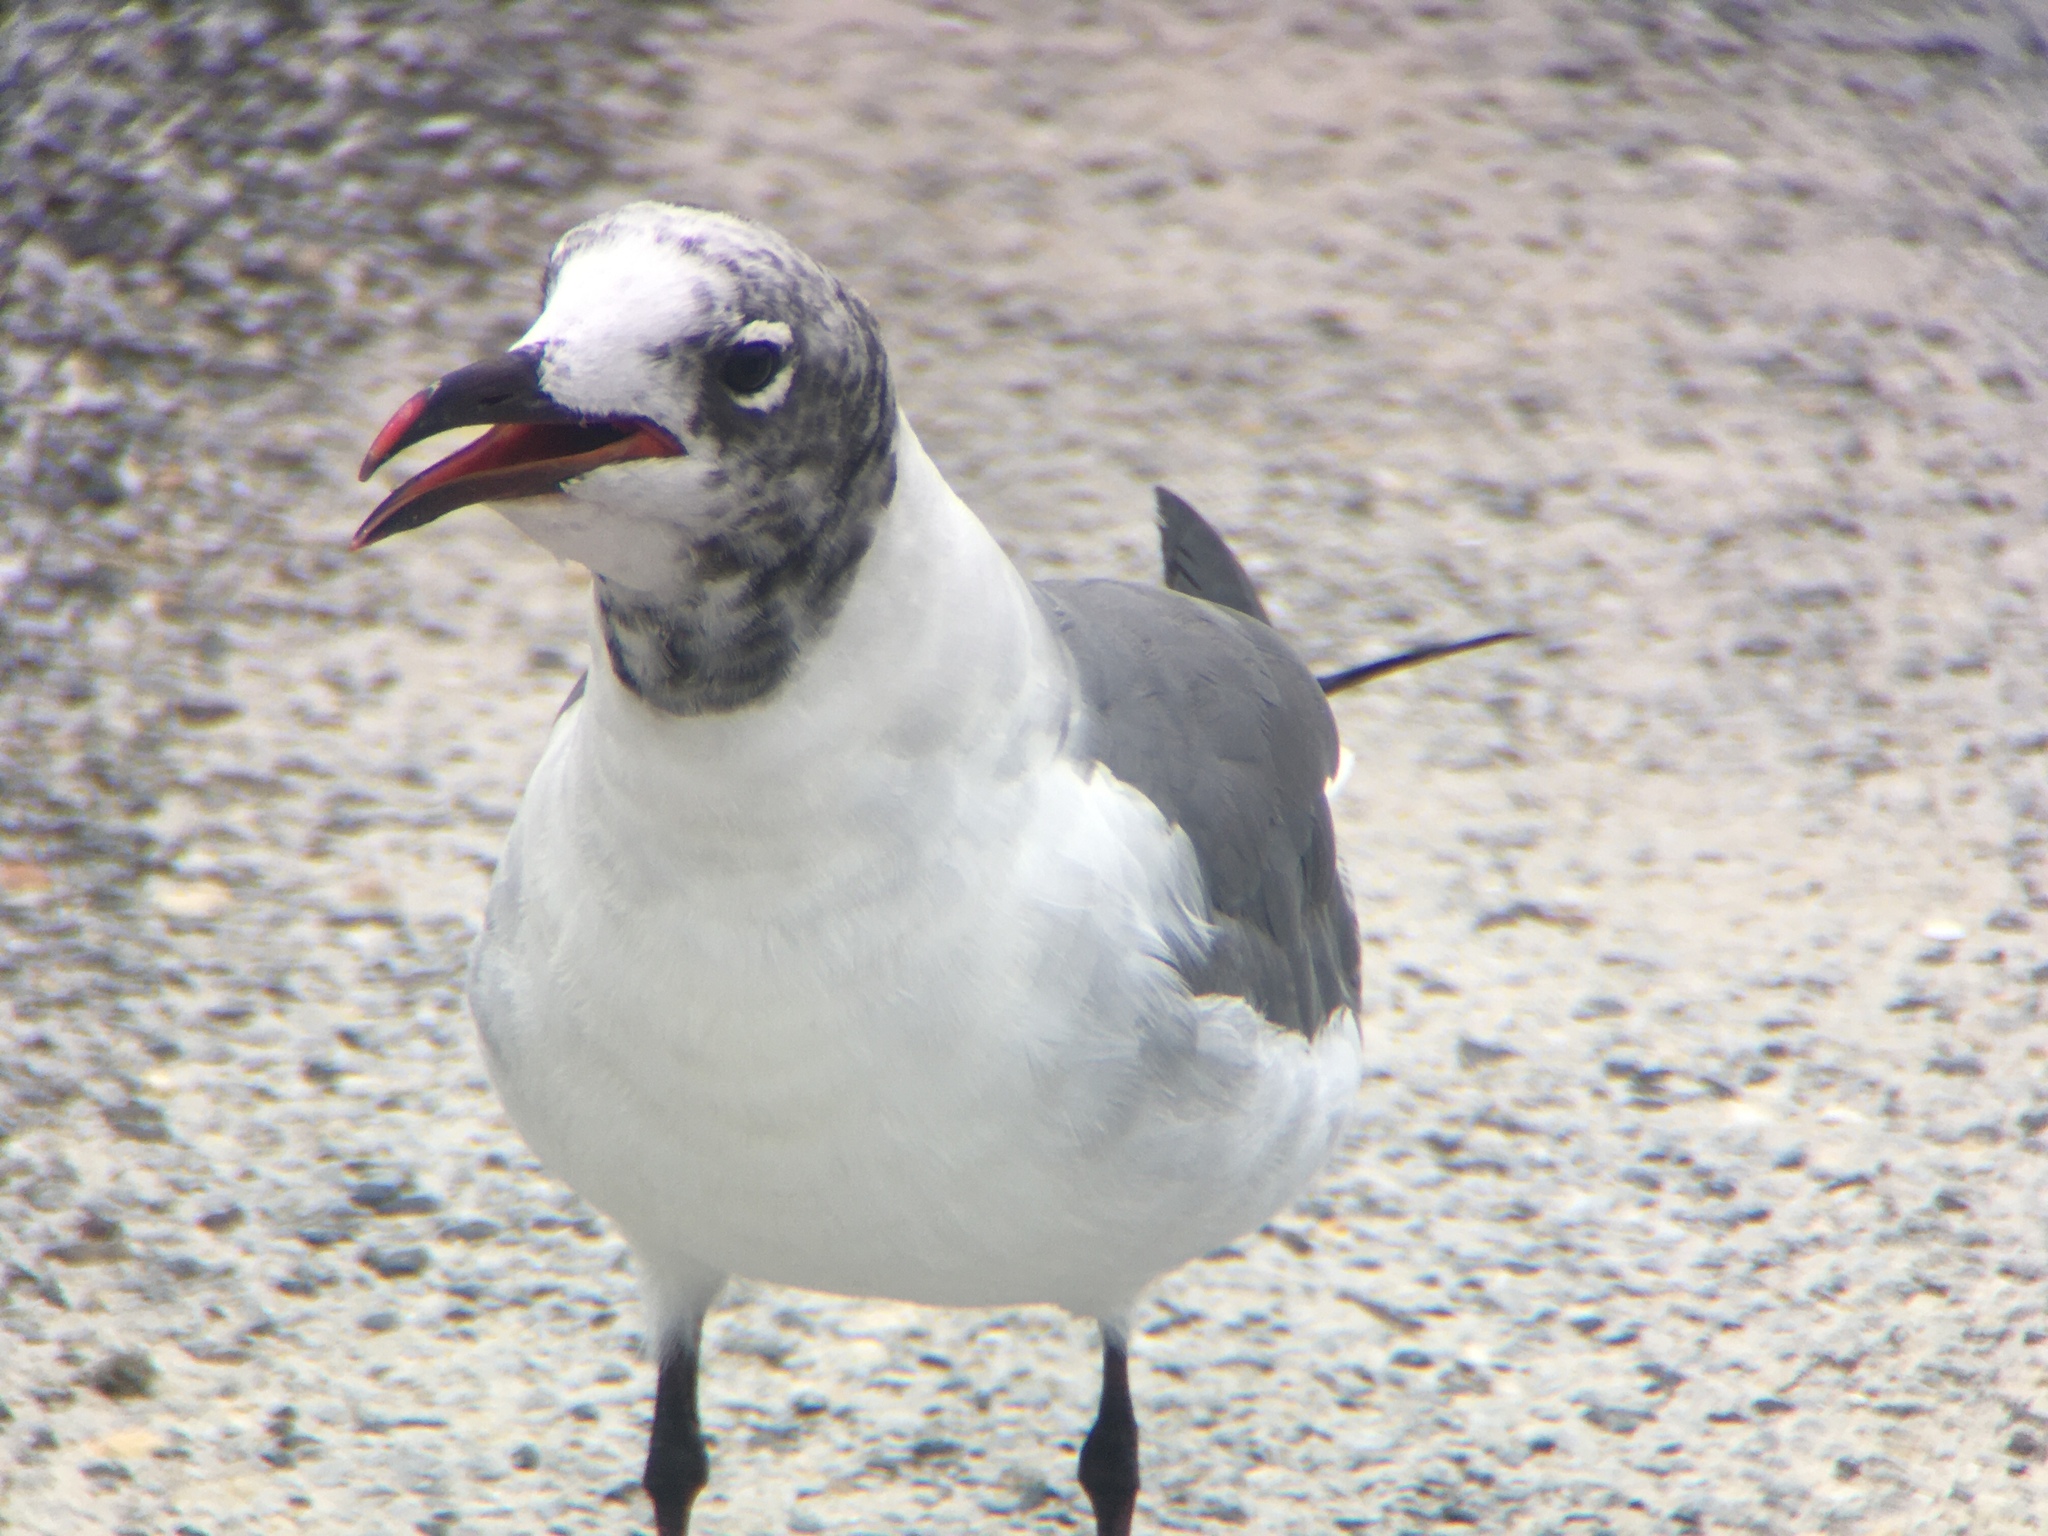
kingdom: Animalia
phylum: Chordata
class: Aves
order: Charadriiformes
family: Laridae
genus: Leucophaeus
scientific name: Leucophaeus atricilla
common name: Laughing gull
